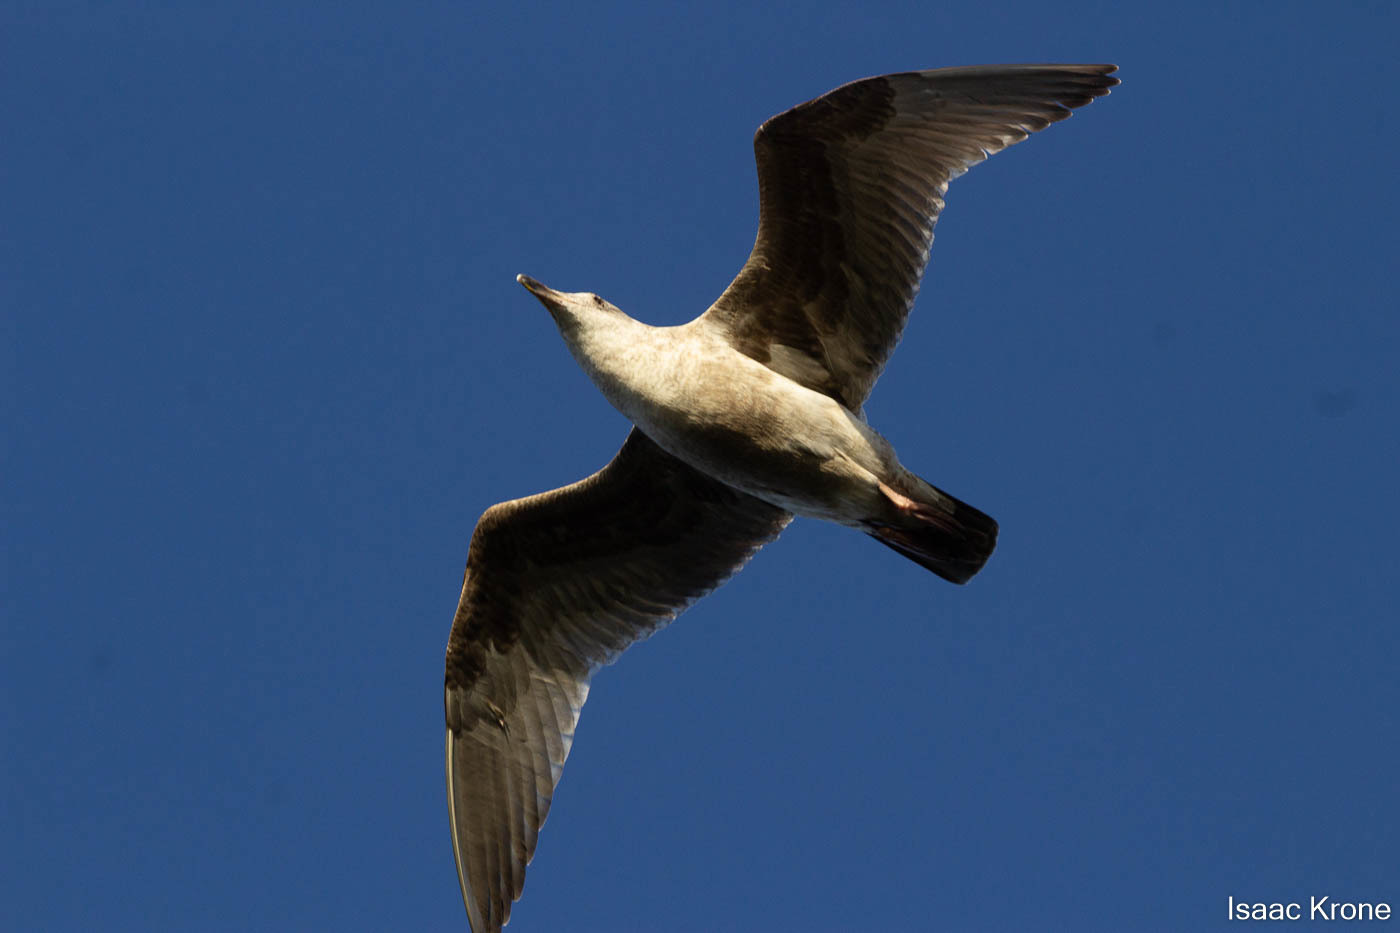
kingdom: Animalia
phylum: Chordata
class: Aves
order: Charadriiformes
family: Laridae
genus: Larus
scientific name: Larus
